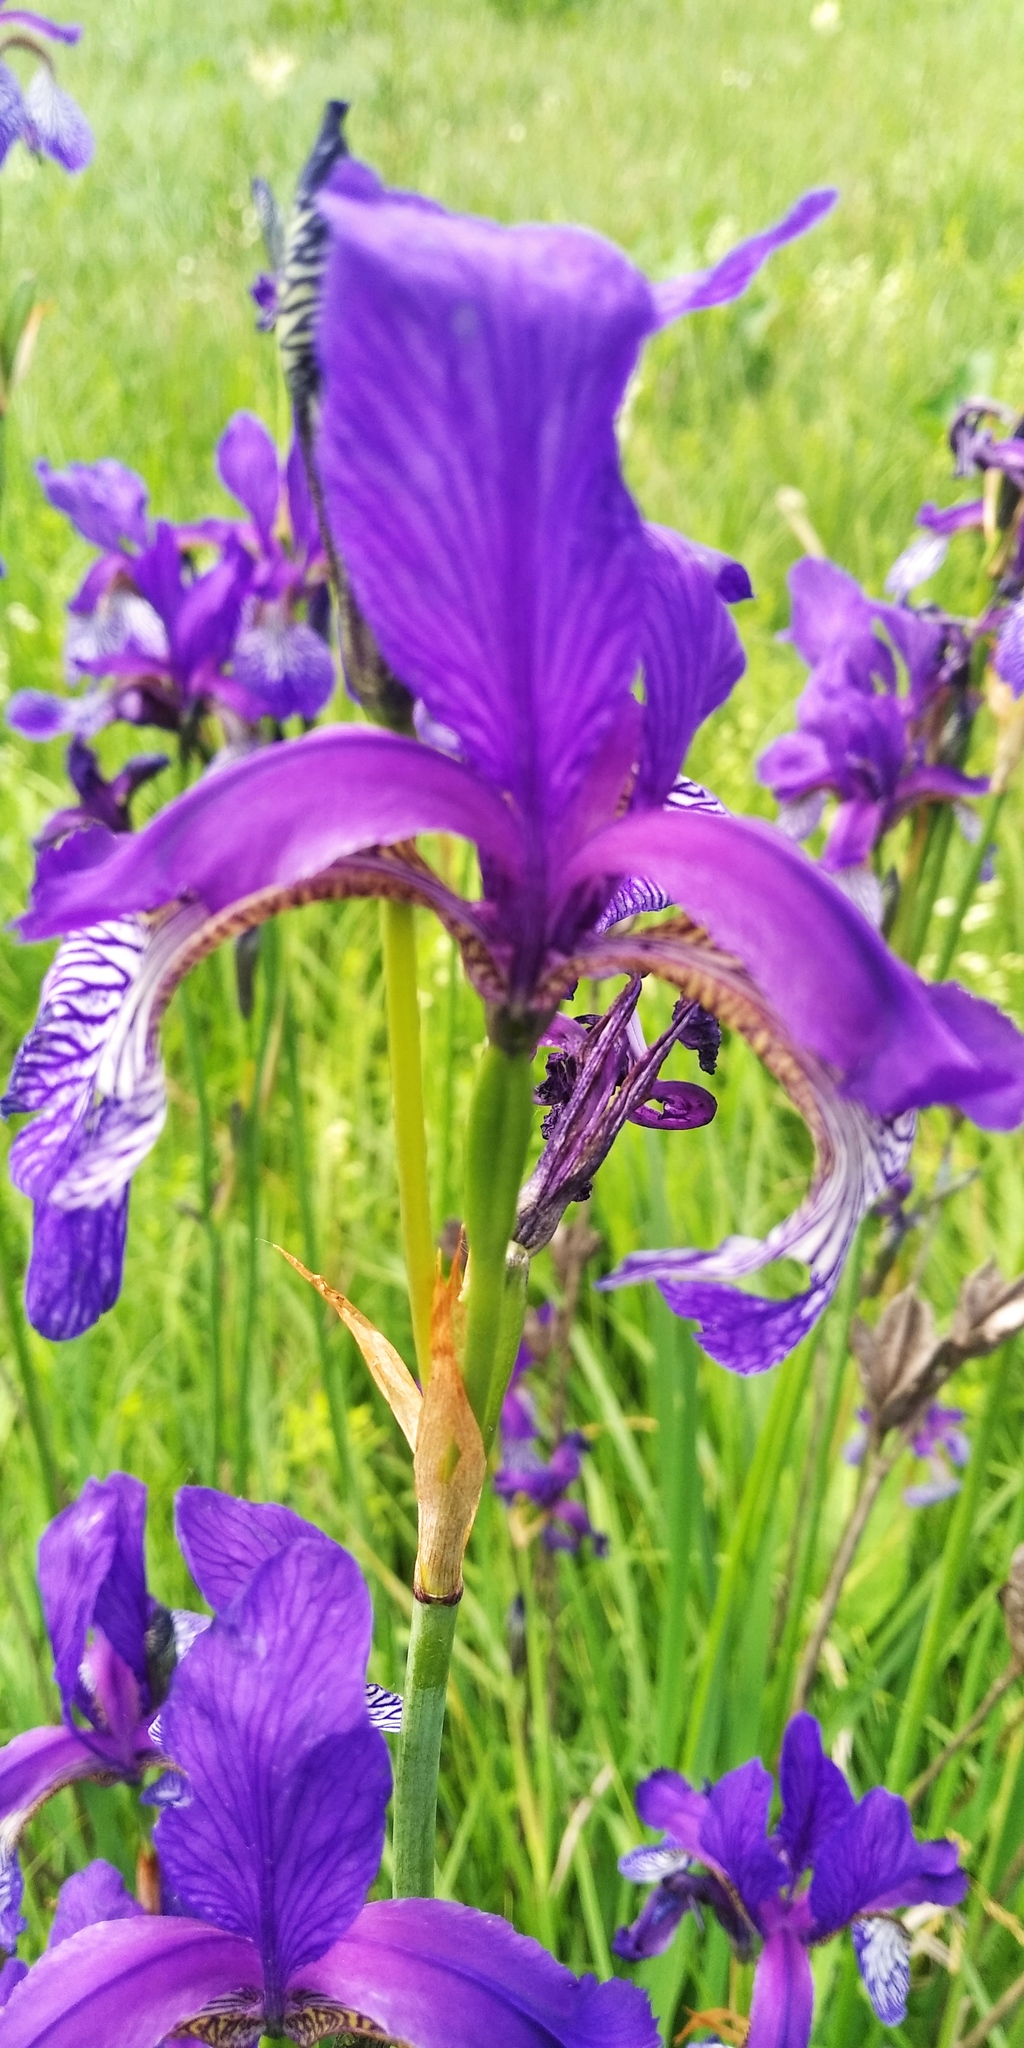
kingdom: Plantae
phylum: Tracheophyta
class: Liliopsida
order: Asparagales
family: Iridaceae
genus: Iris
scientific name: Iris sibirica
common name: Siberian iris
